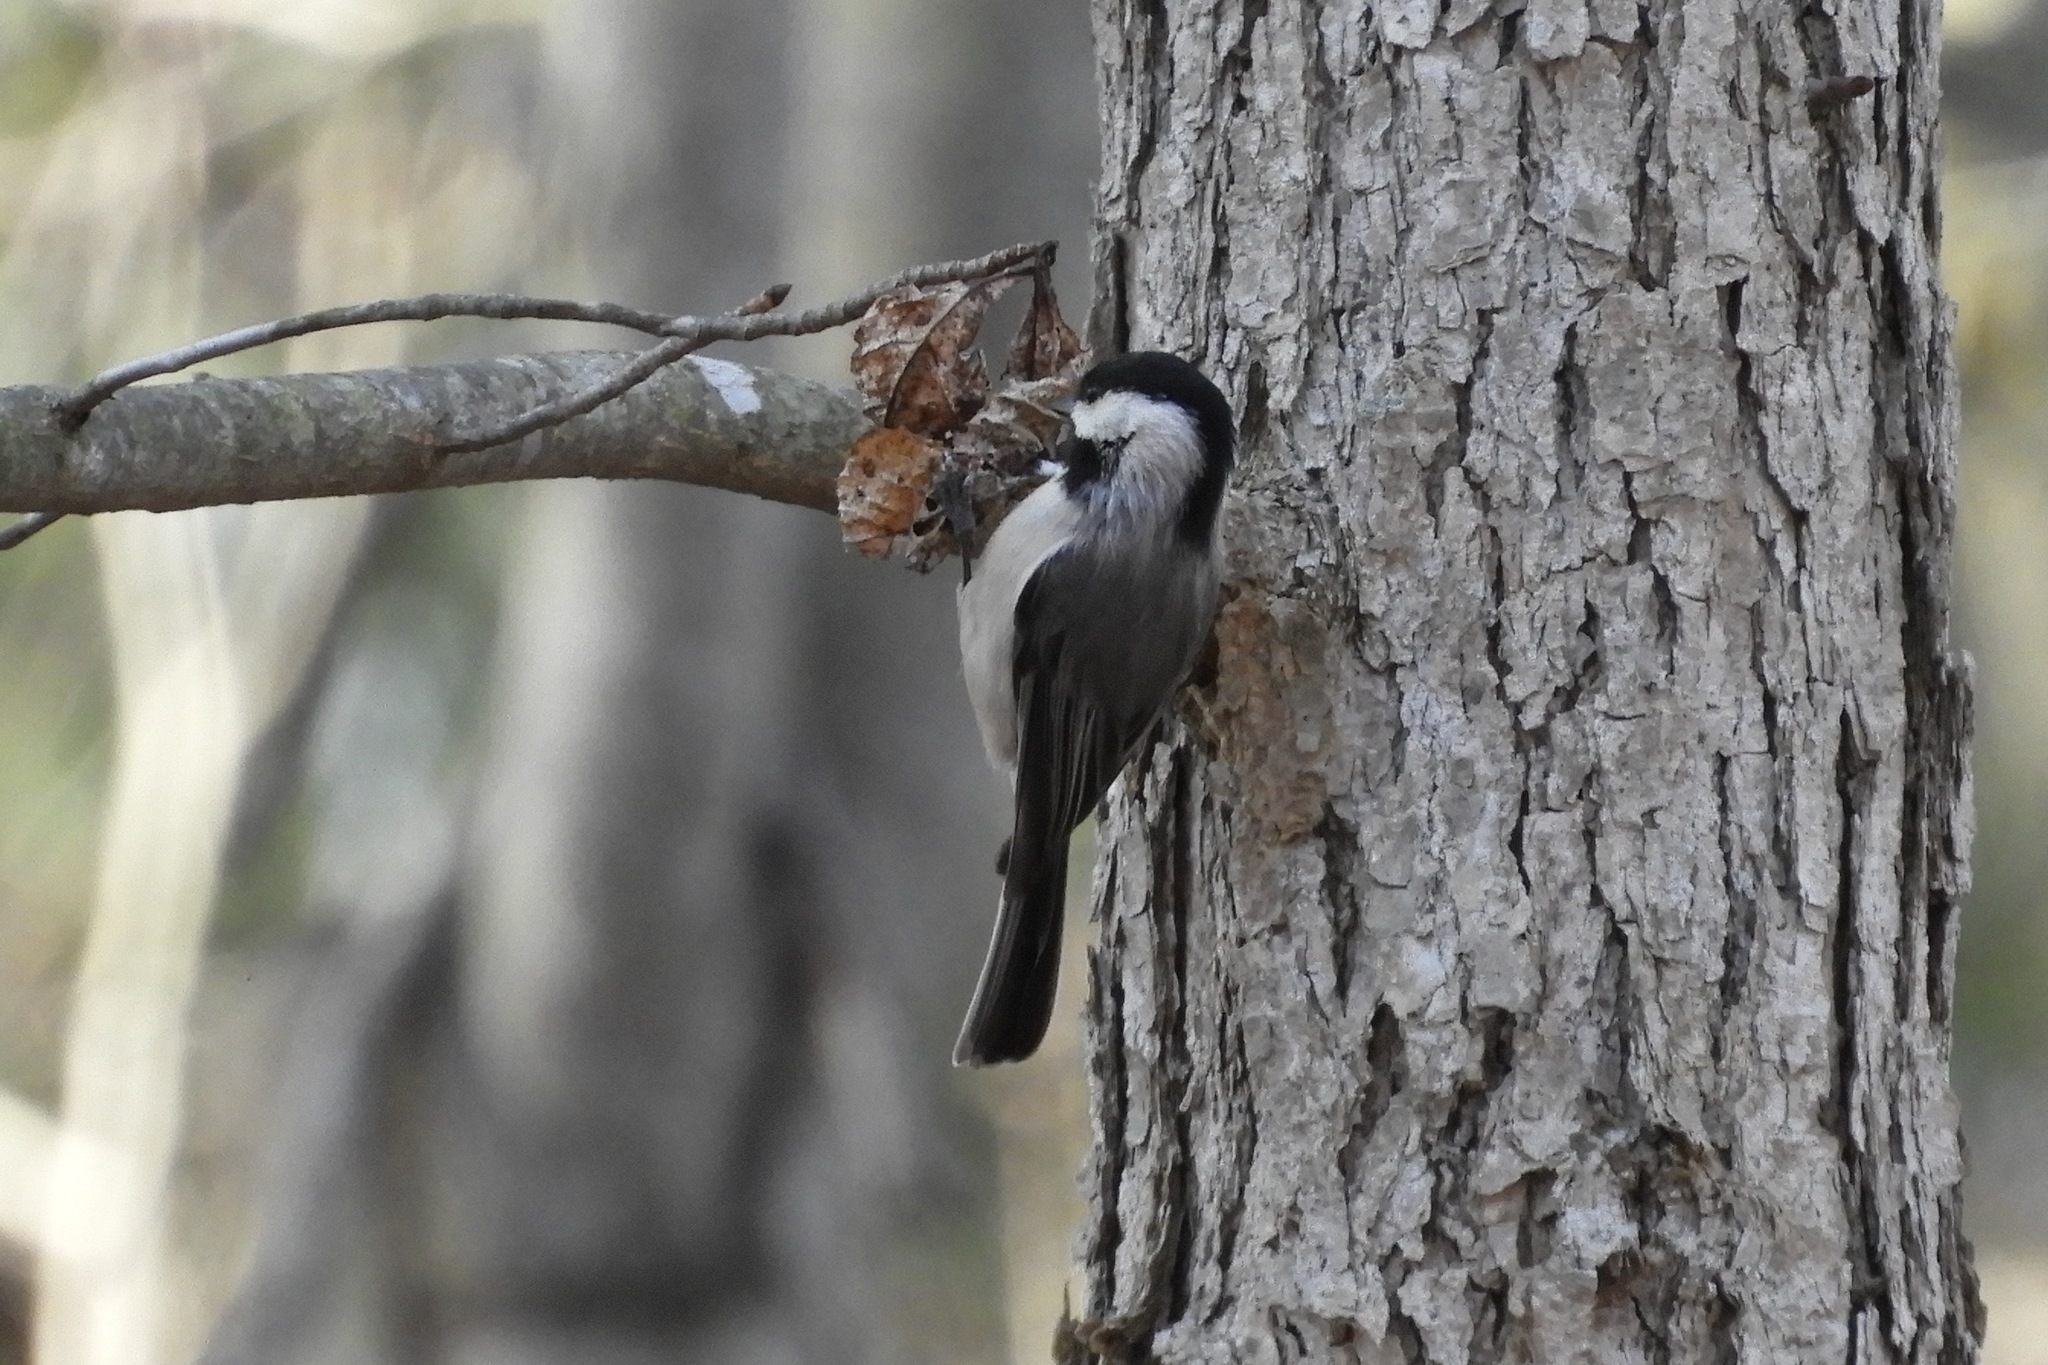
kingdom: Animalia
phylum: Chordata
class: Aves
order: Passeriformes
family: Paridae
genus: Poecile
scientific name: Poecile carolinensis
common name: Carolina chickadee
